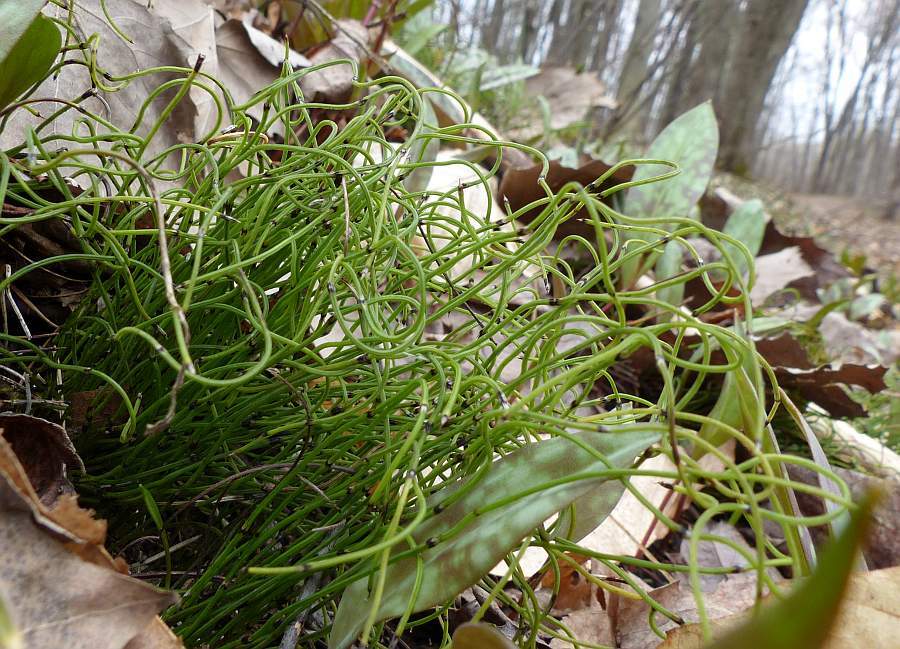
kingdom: Plantae
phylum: Tracheophyta
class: Polypodiopsida
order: Equisetales
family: Equisetaceae
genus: Equisetum
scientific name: Equisetum scirpoides
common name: Delicate horsetail
